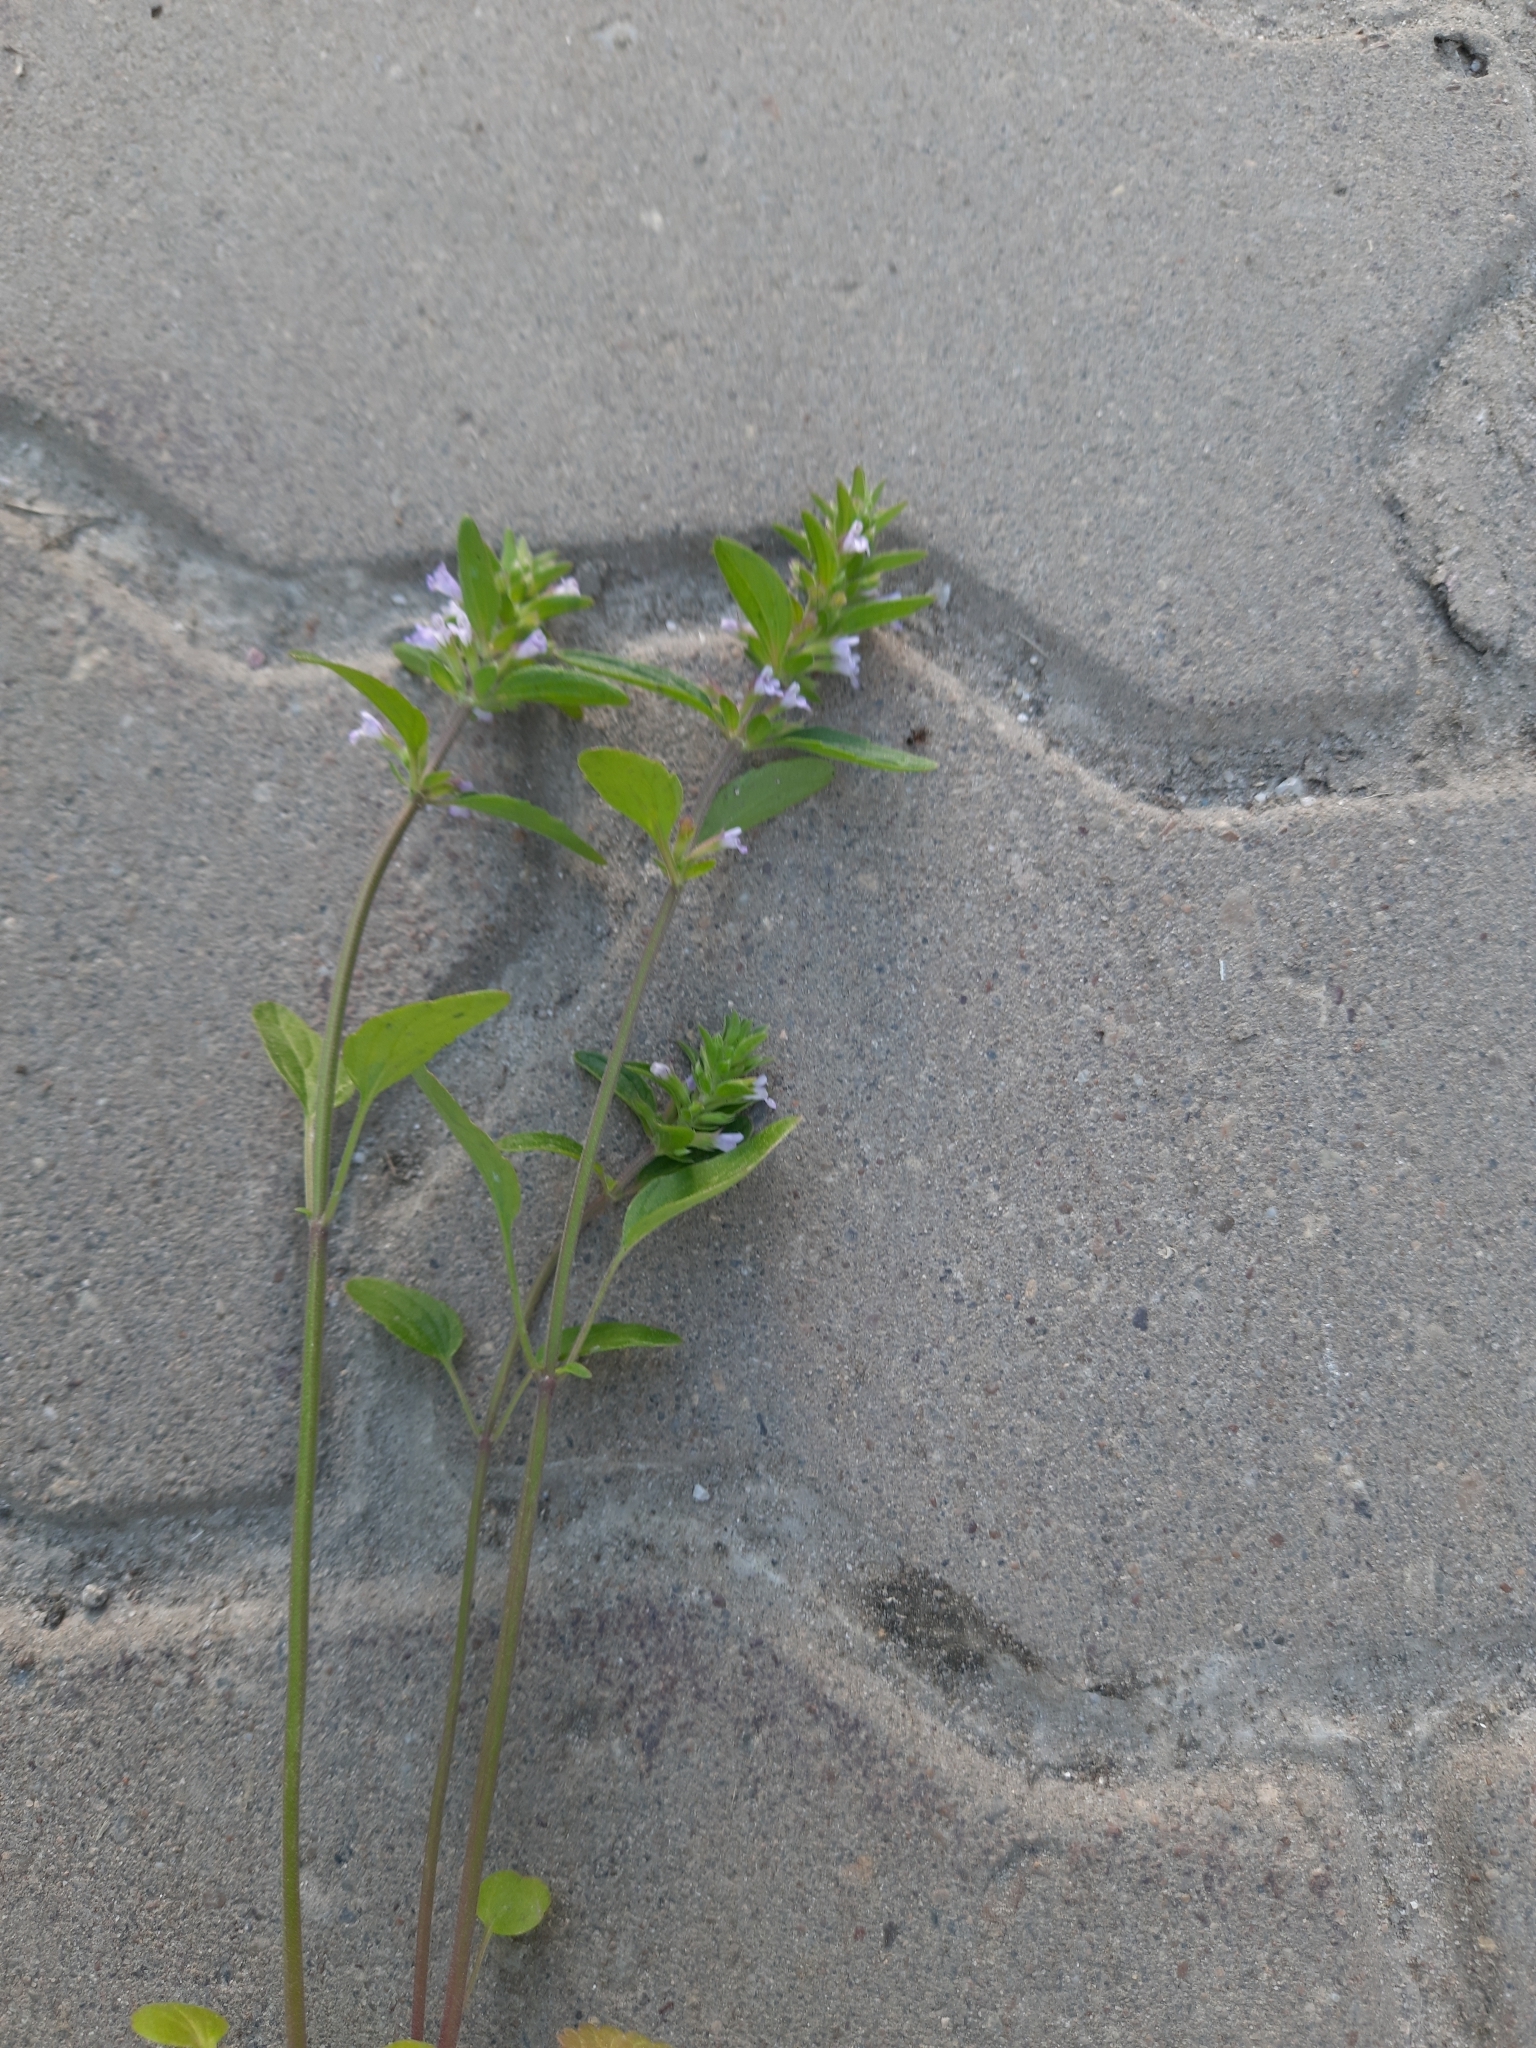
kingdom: Plantae
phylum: Tracheophyta
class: Magnoliopsida
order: Lamiales
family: Lamiaceae
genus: Dracocephalum
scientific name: Dracocephalum thymiflorum
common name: Thymeleaf dragonhead
